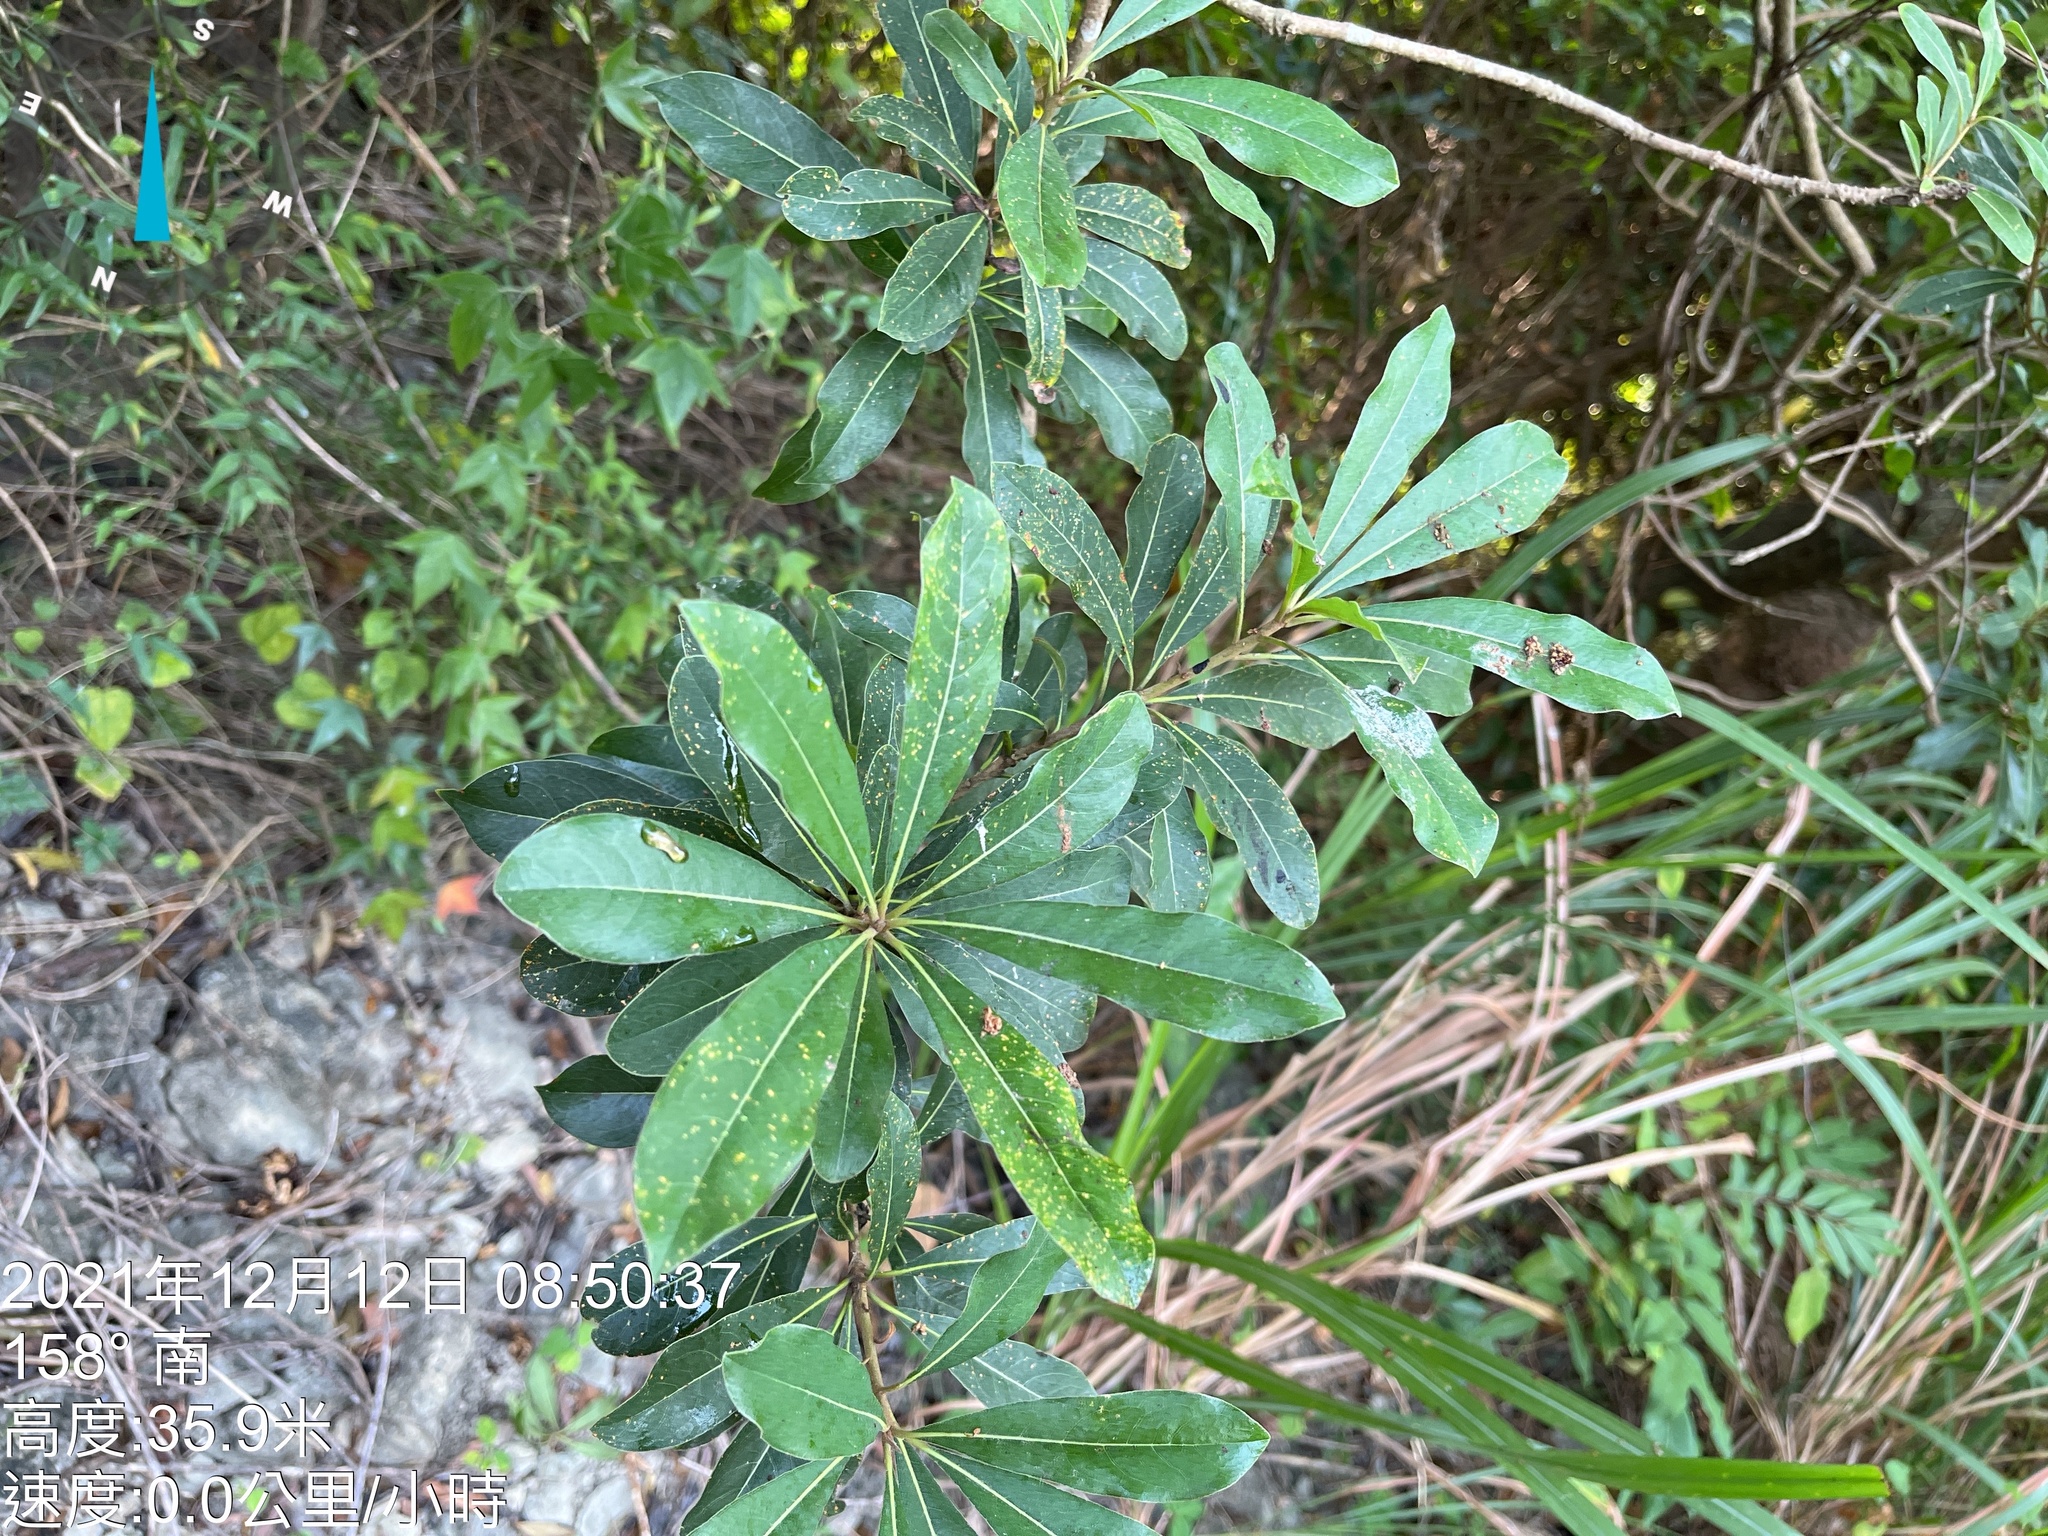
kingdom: Plantae
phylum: Tracheophyta
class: Magnoliopsida
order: Apiales
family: Pittosporaceae
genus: Pittosporum
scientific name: Pittosporum pentandrum
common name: Taiwanese cheesewood
